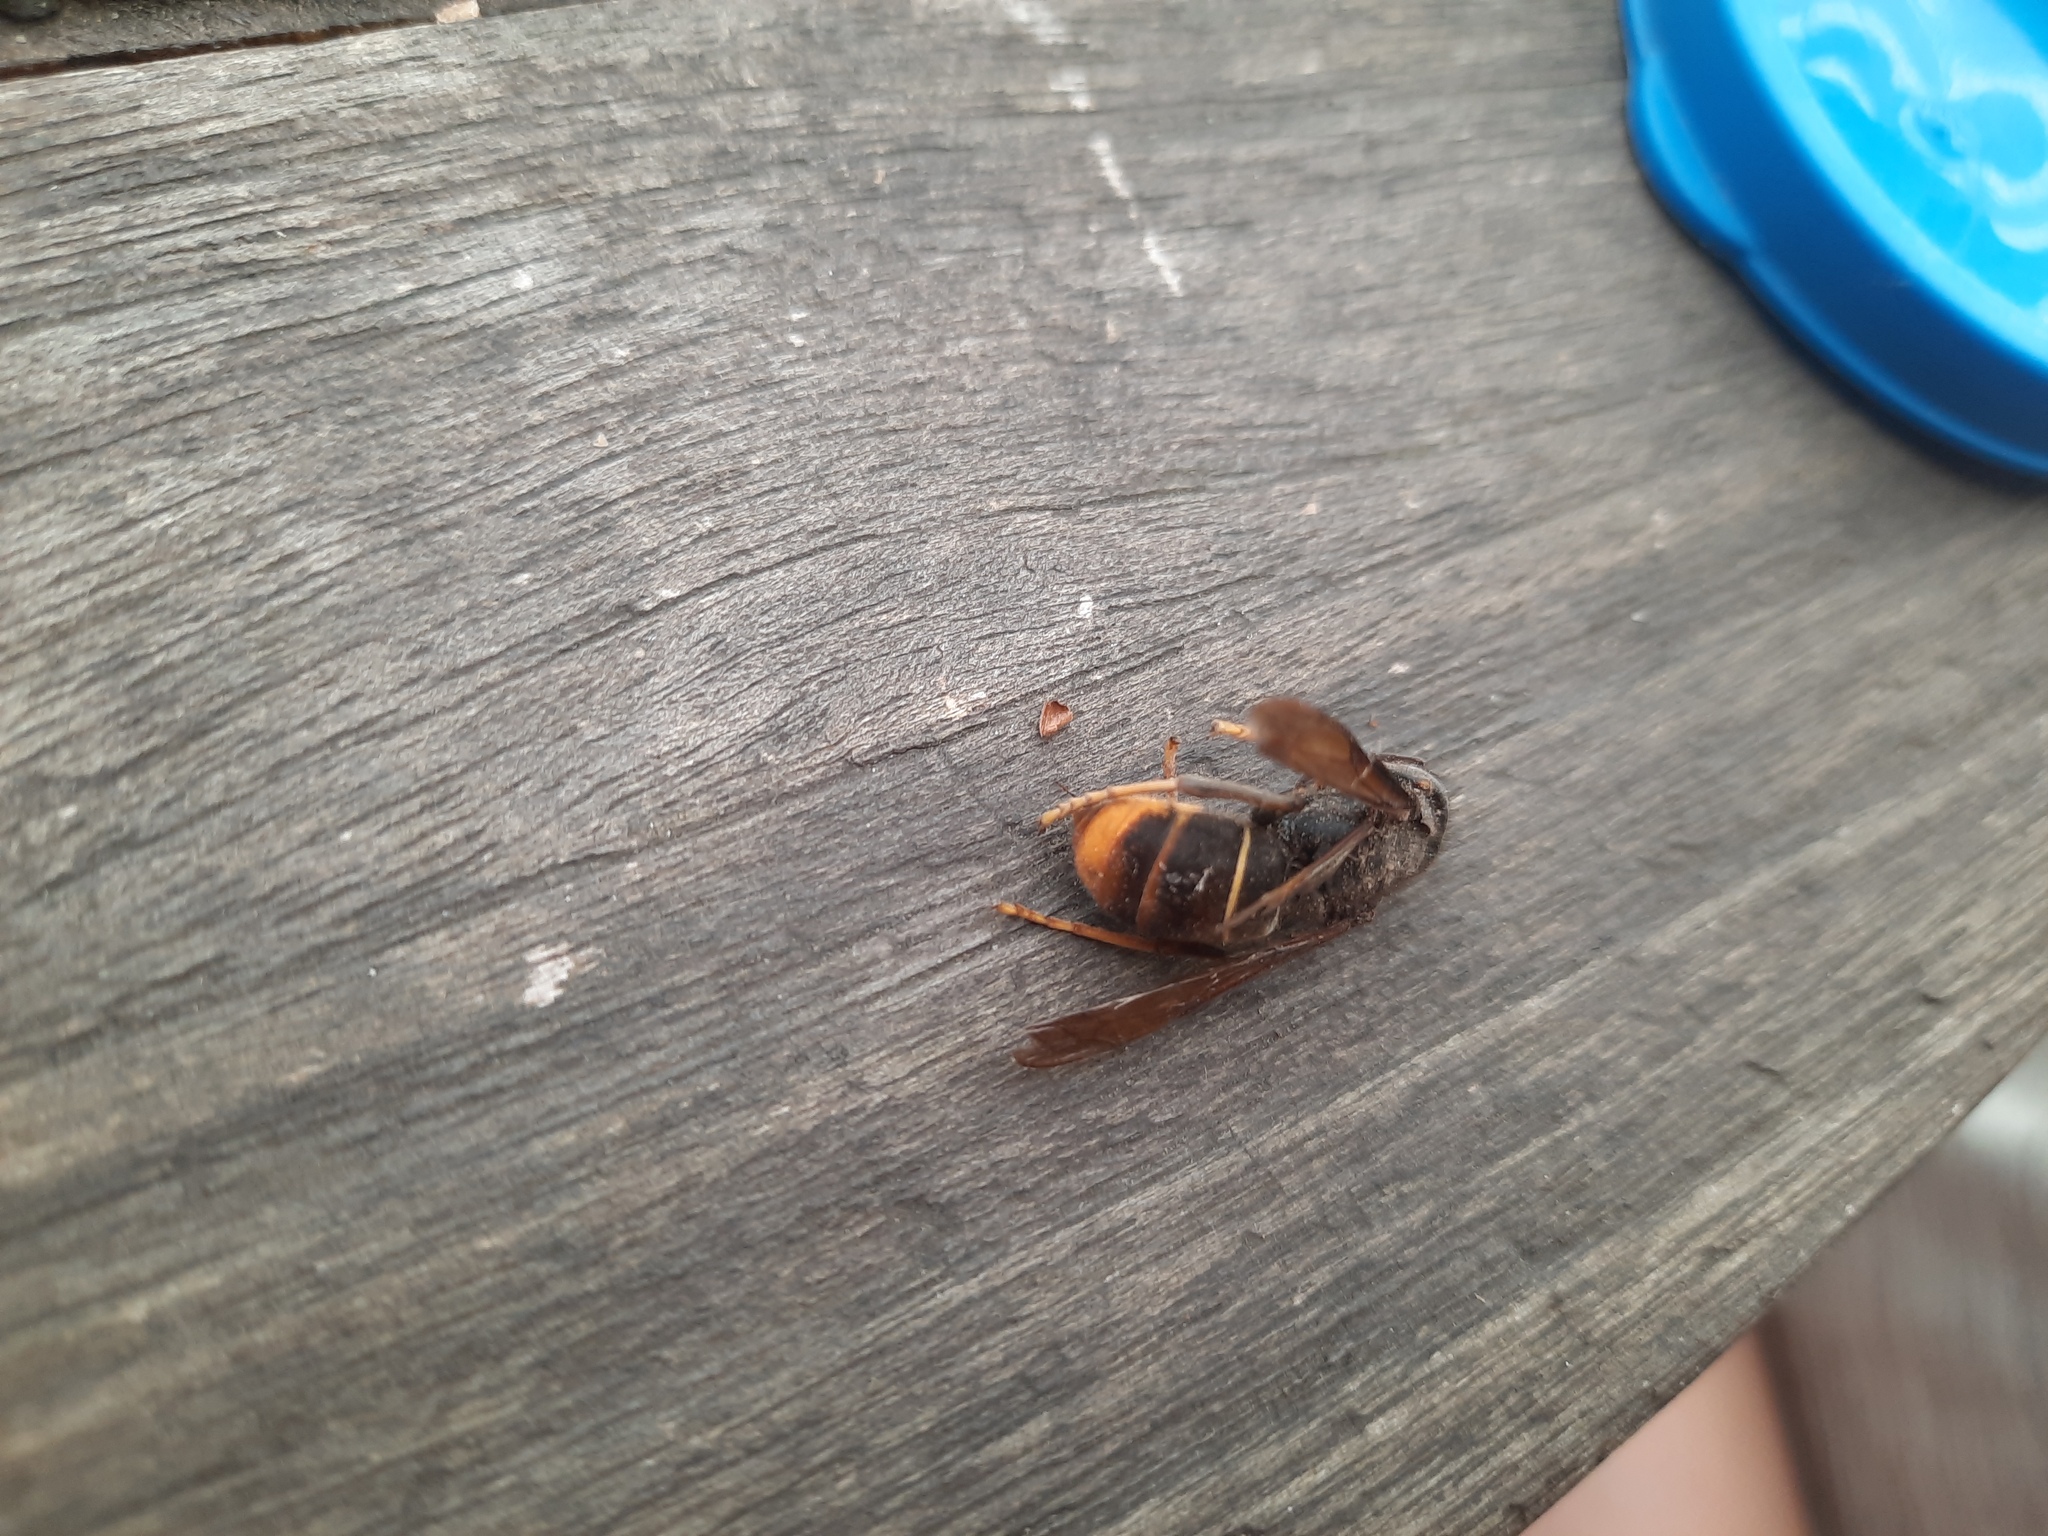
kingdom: Animalia
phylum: Arthropoda
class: Insecta
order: Hymenoptera
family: Vespidae
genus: Vespa
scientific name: Vespa velutina
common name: Asian hornet
